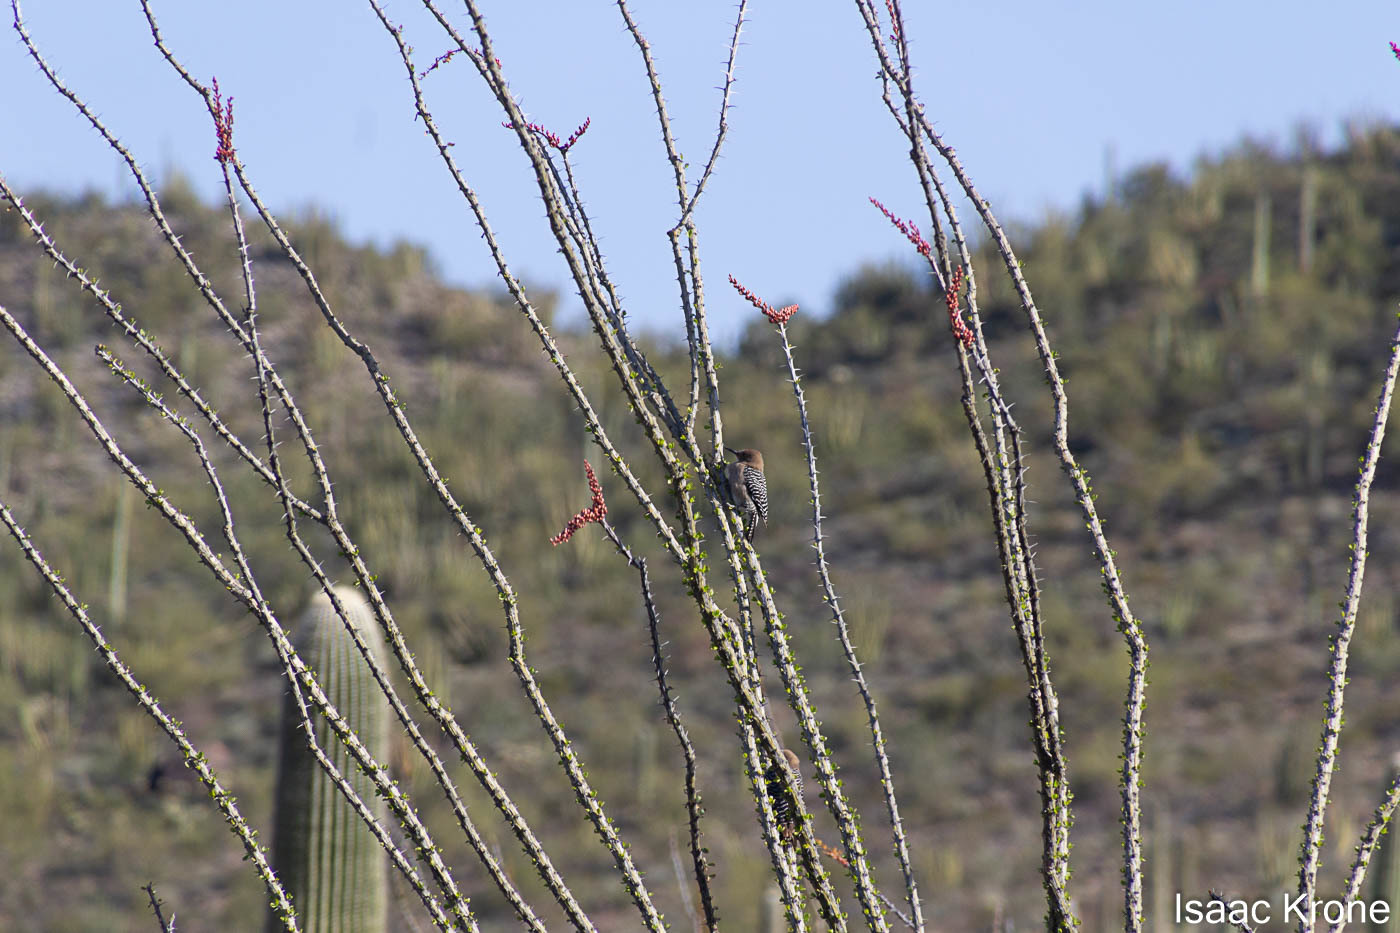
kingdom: Animalia
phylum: Chordata
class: Aves
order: Piciformes
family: Picidae
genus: Melanerpes
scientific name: Melanerpes uropygialis
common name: Gila woodpecker
